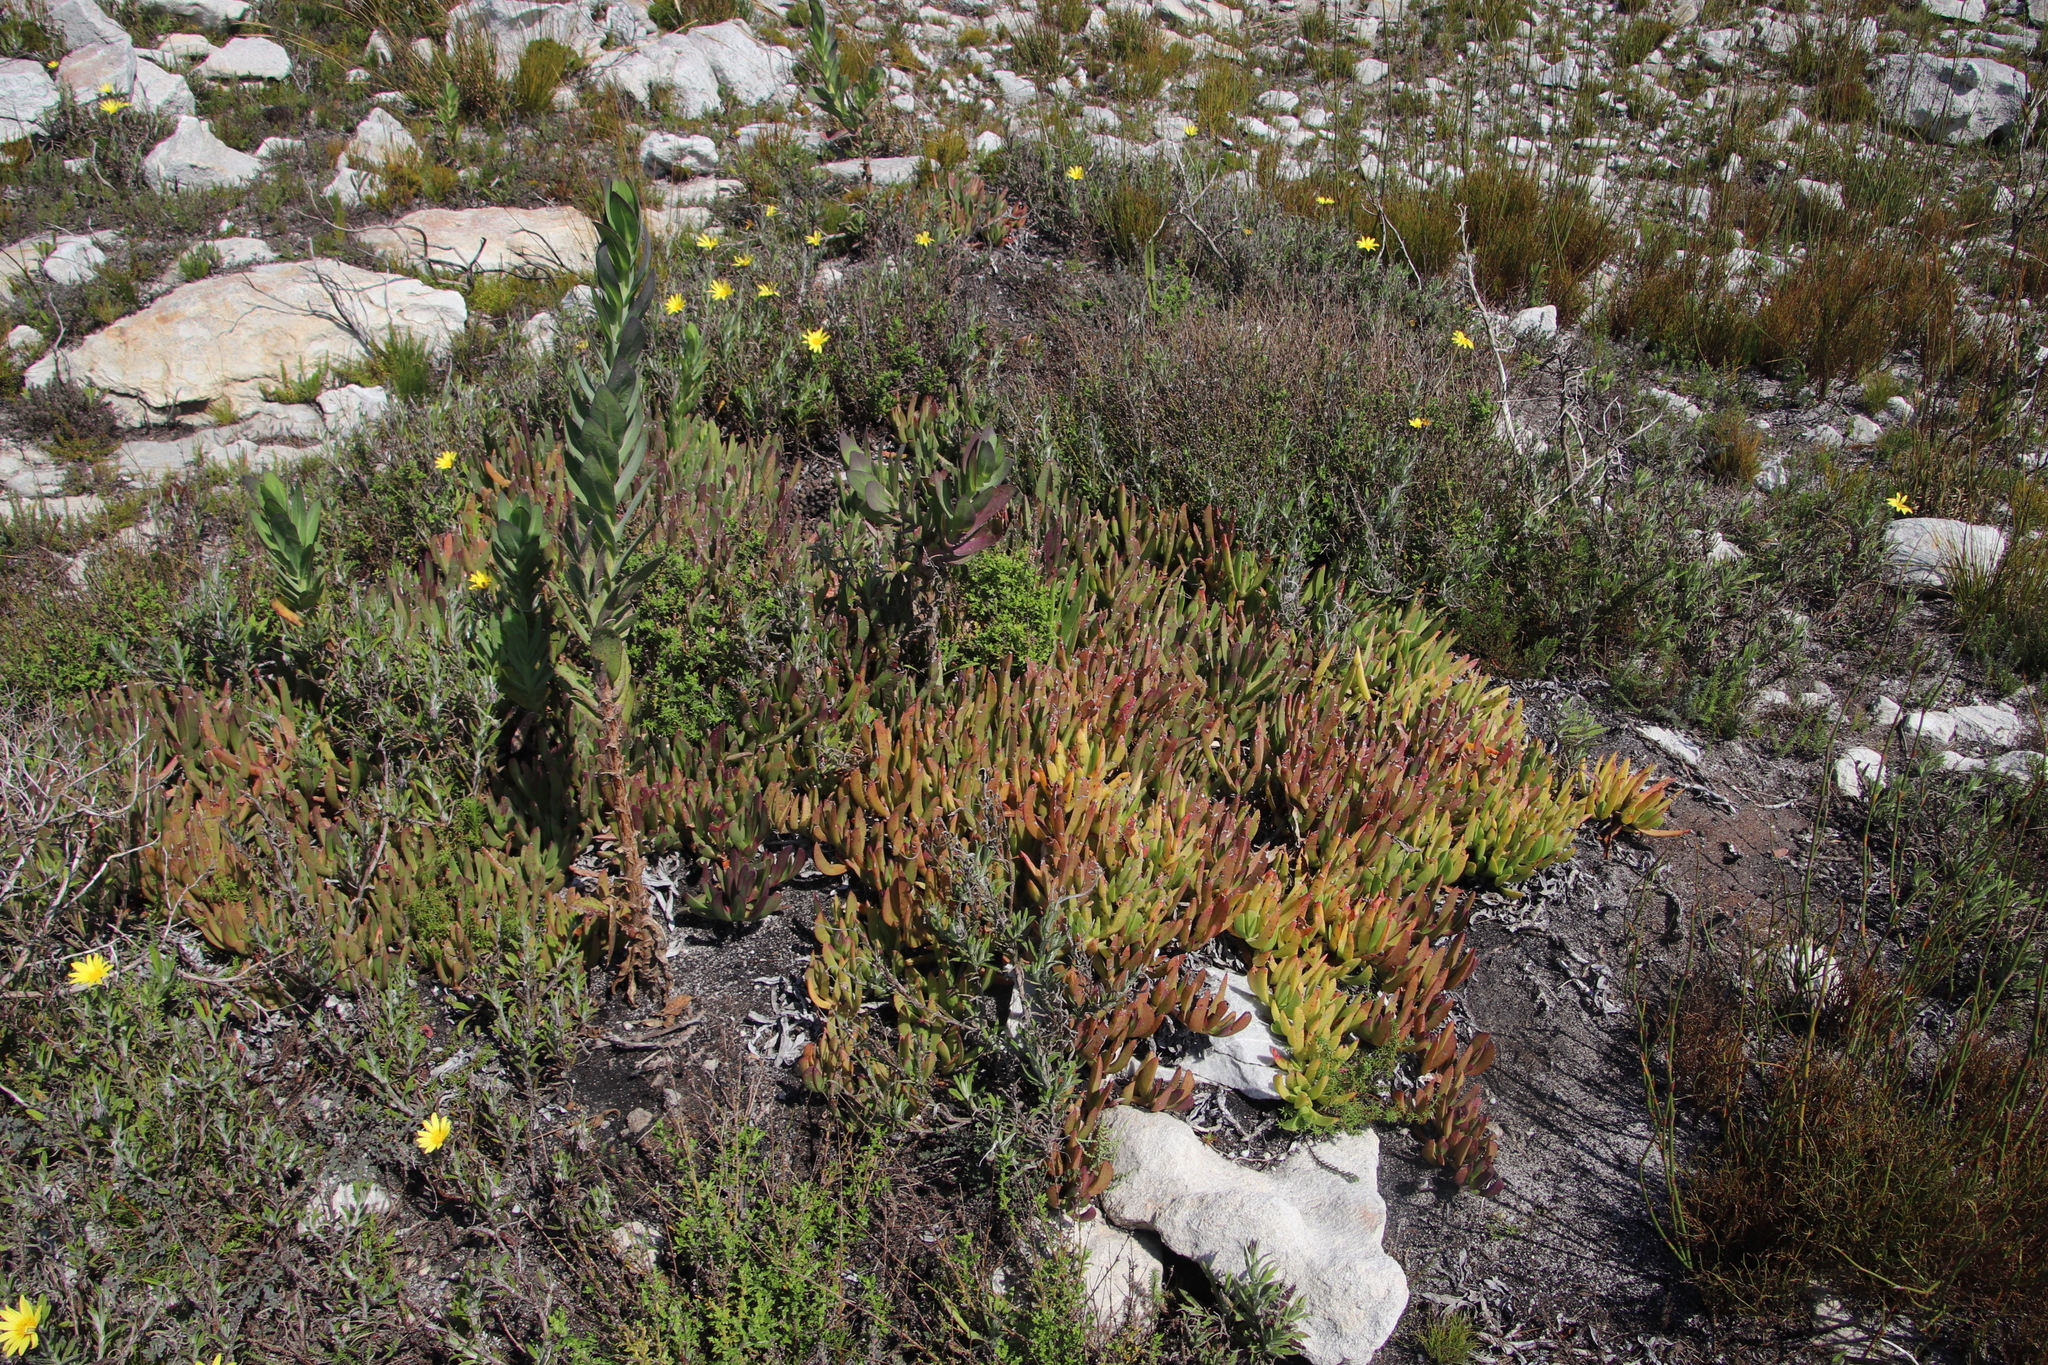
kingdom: Animalia
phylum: Chordata
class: Mammalia
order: Artiodactyla
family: Bovidae
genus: Oreotragus
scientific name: Oreotragus oreotragus
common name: Klipspringer
